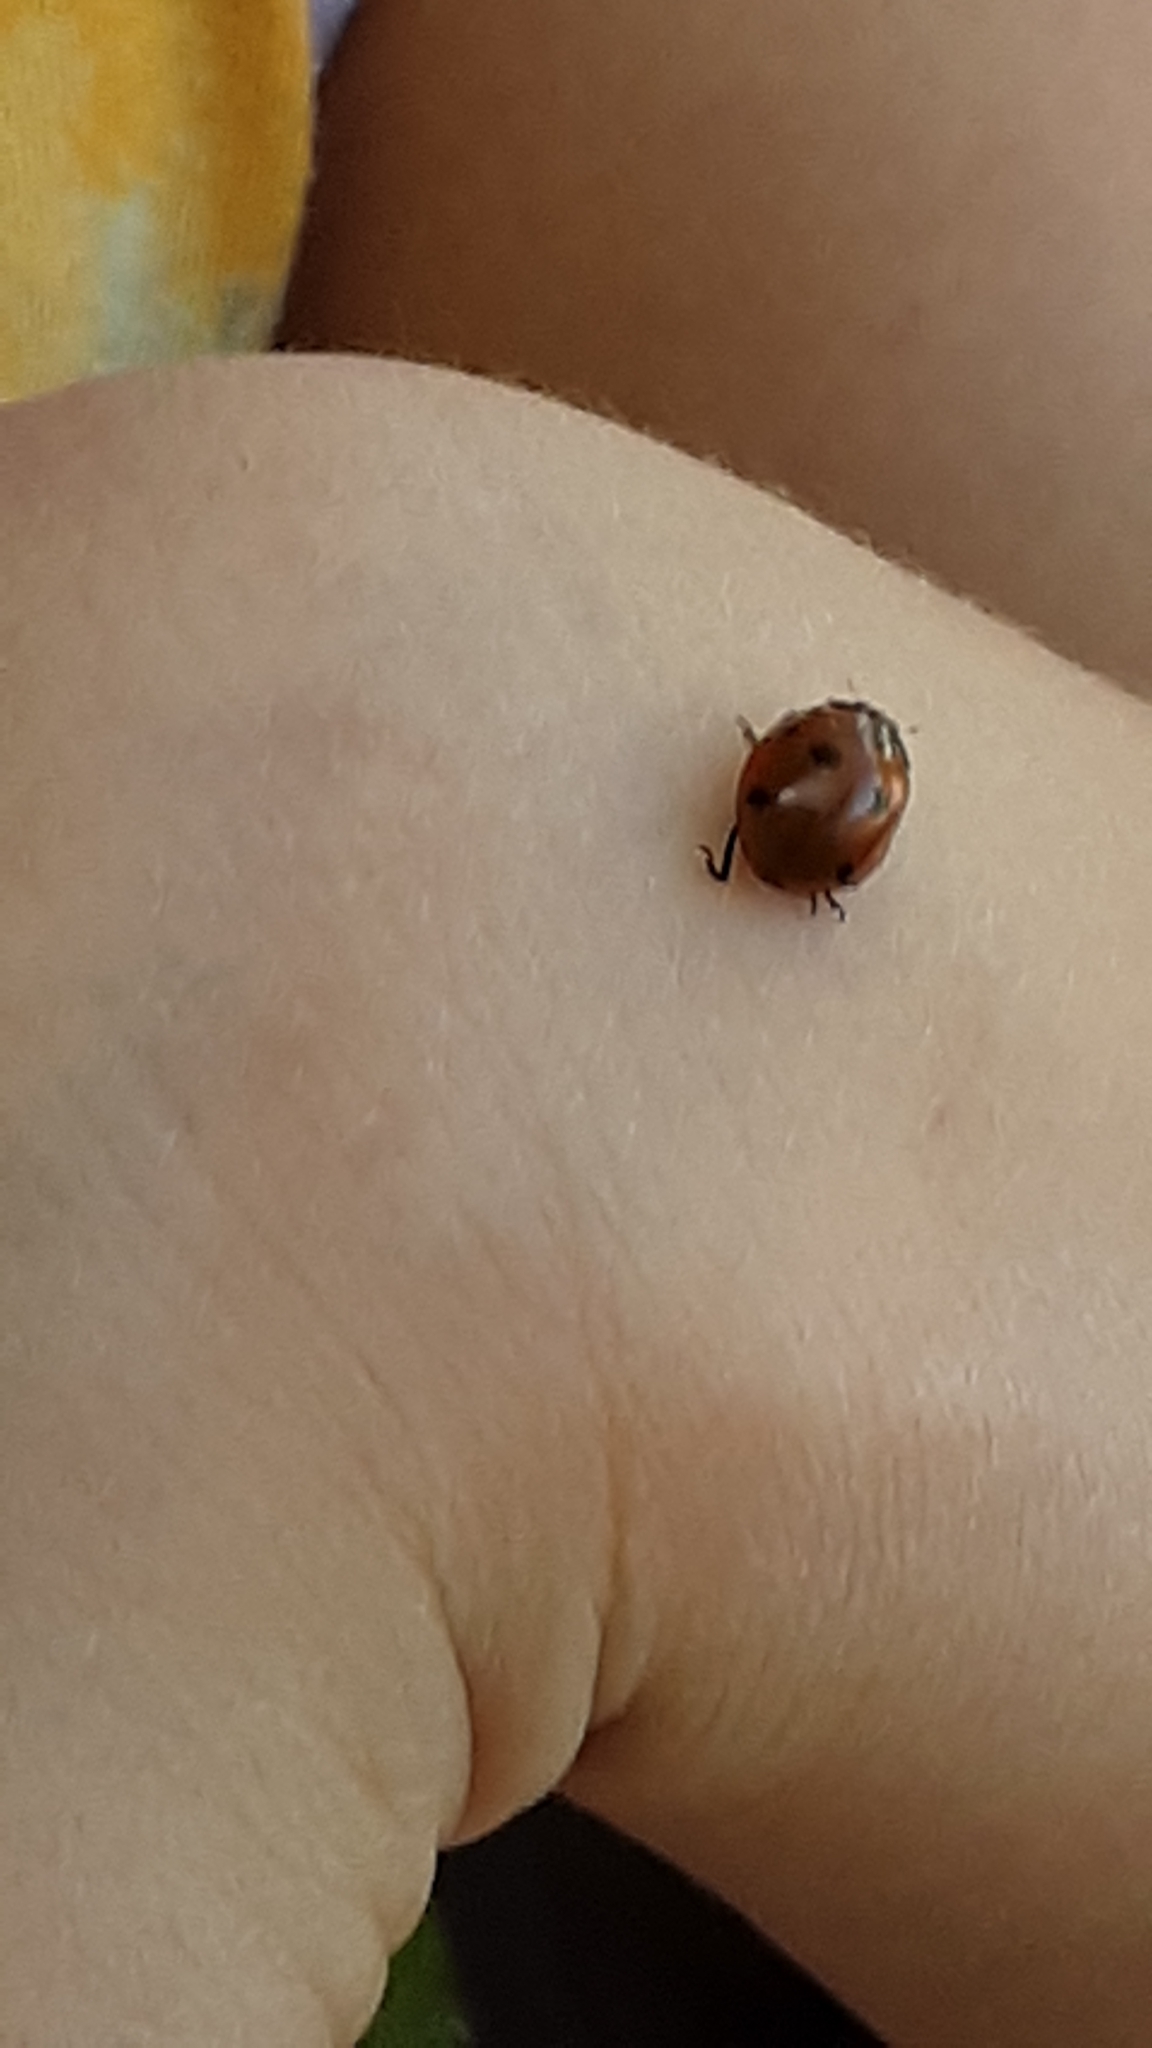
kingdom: Animalia
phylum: Arthropoda
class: Insecta
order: Coleoptera
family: Coccinellidae
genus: Coccinella
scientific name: Coccinella septempunctata
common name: Sevenspotted lady beetle
